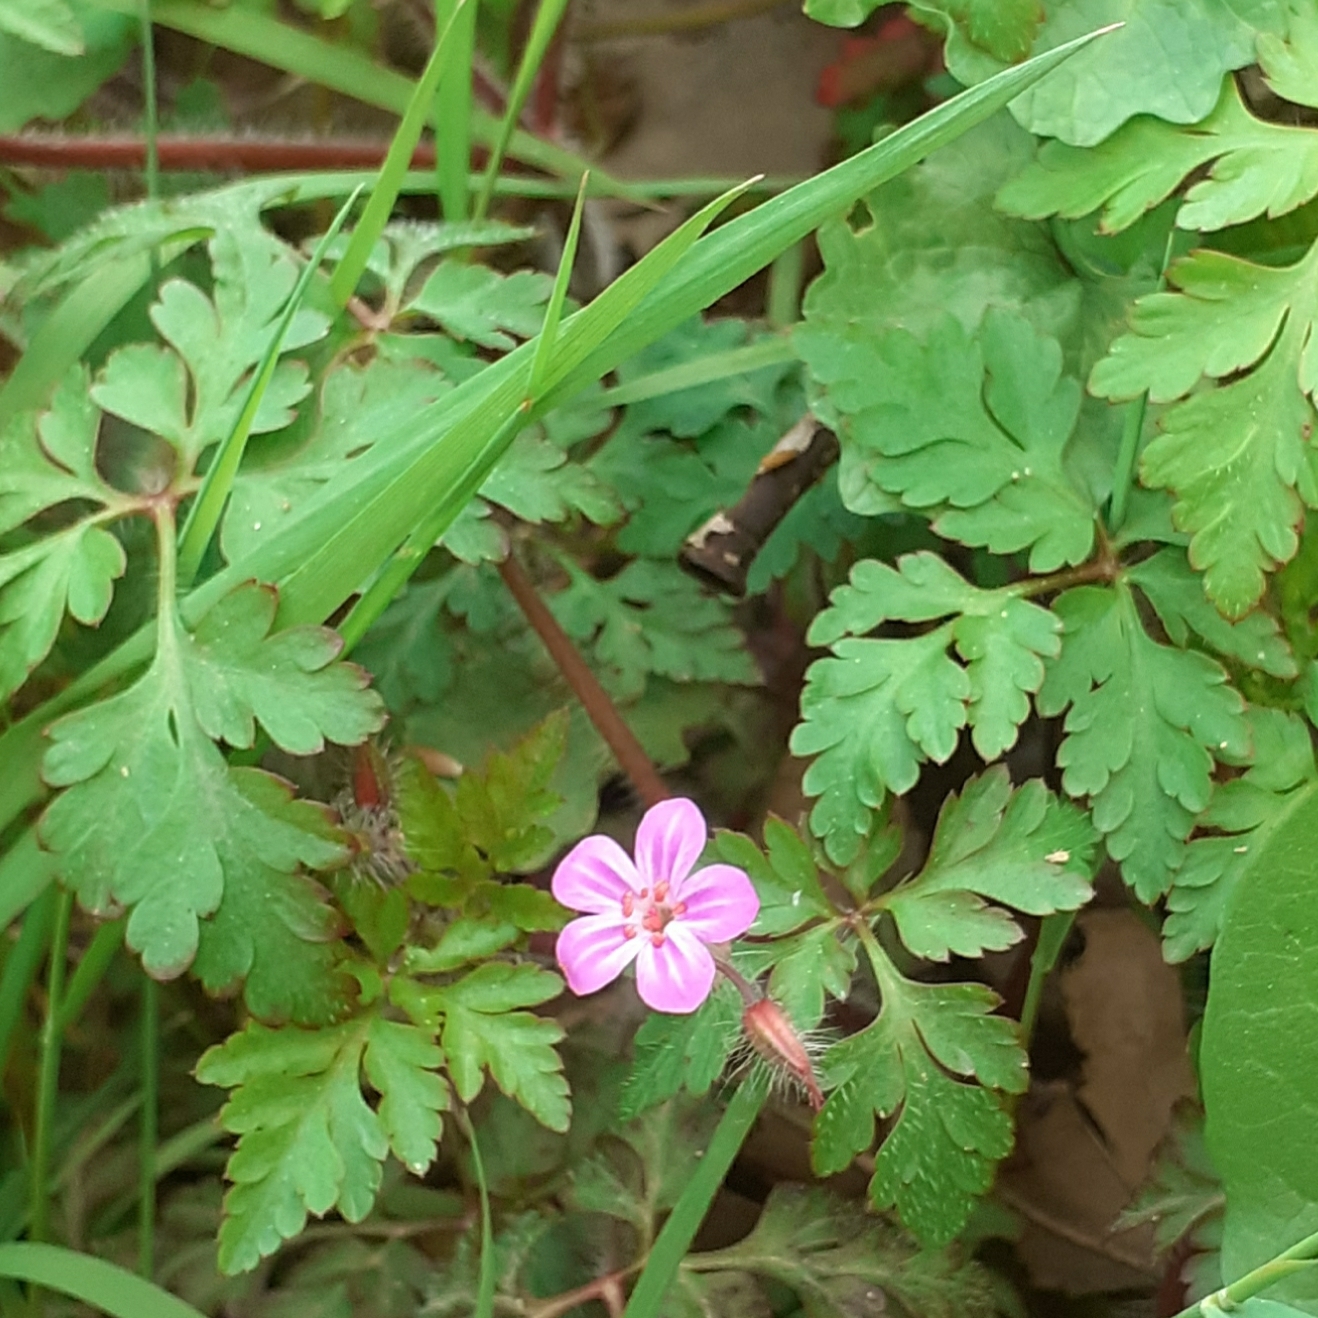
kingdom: Plantae
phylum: Tracheophyta
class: Magnoliopsida
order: Geraniales
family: Geraniaceae
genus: Geranium
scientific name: Geranium robertianum
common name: Herb-robert
